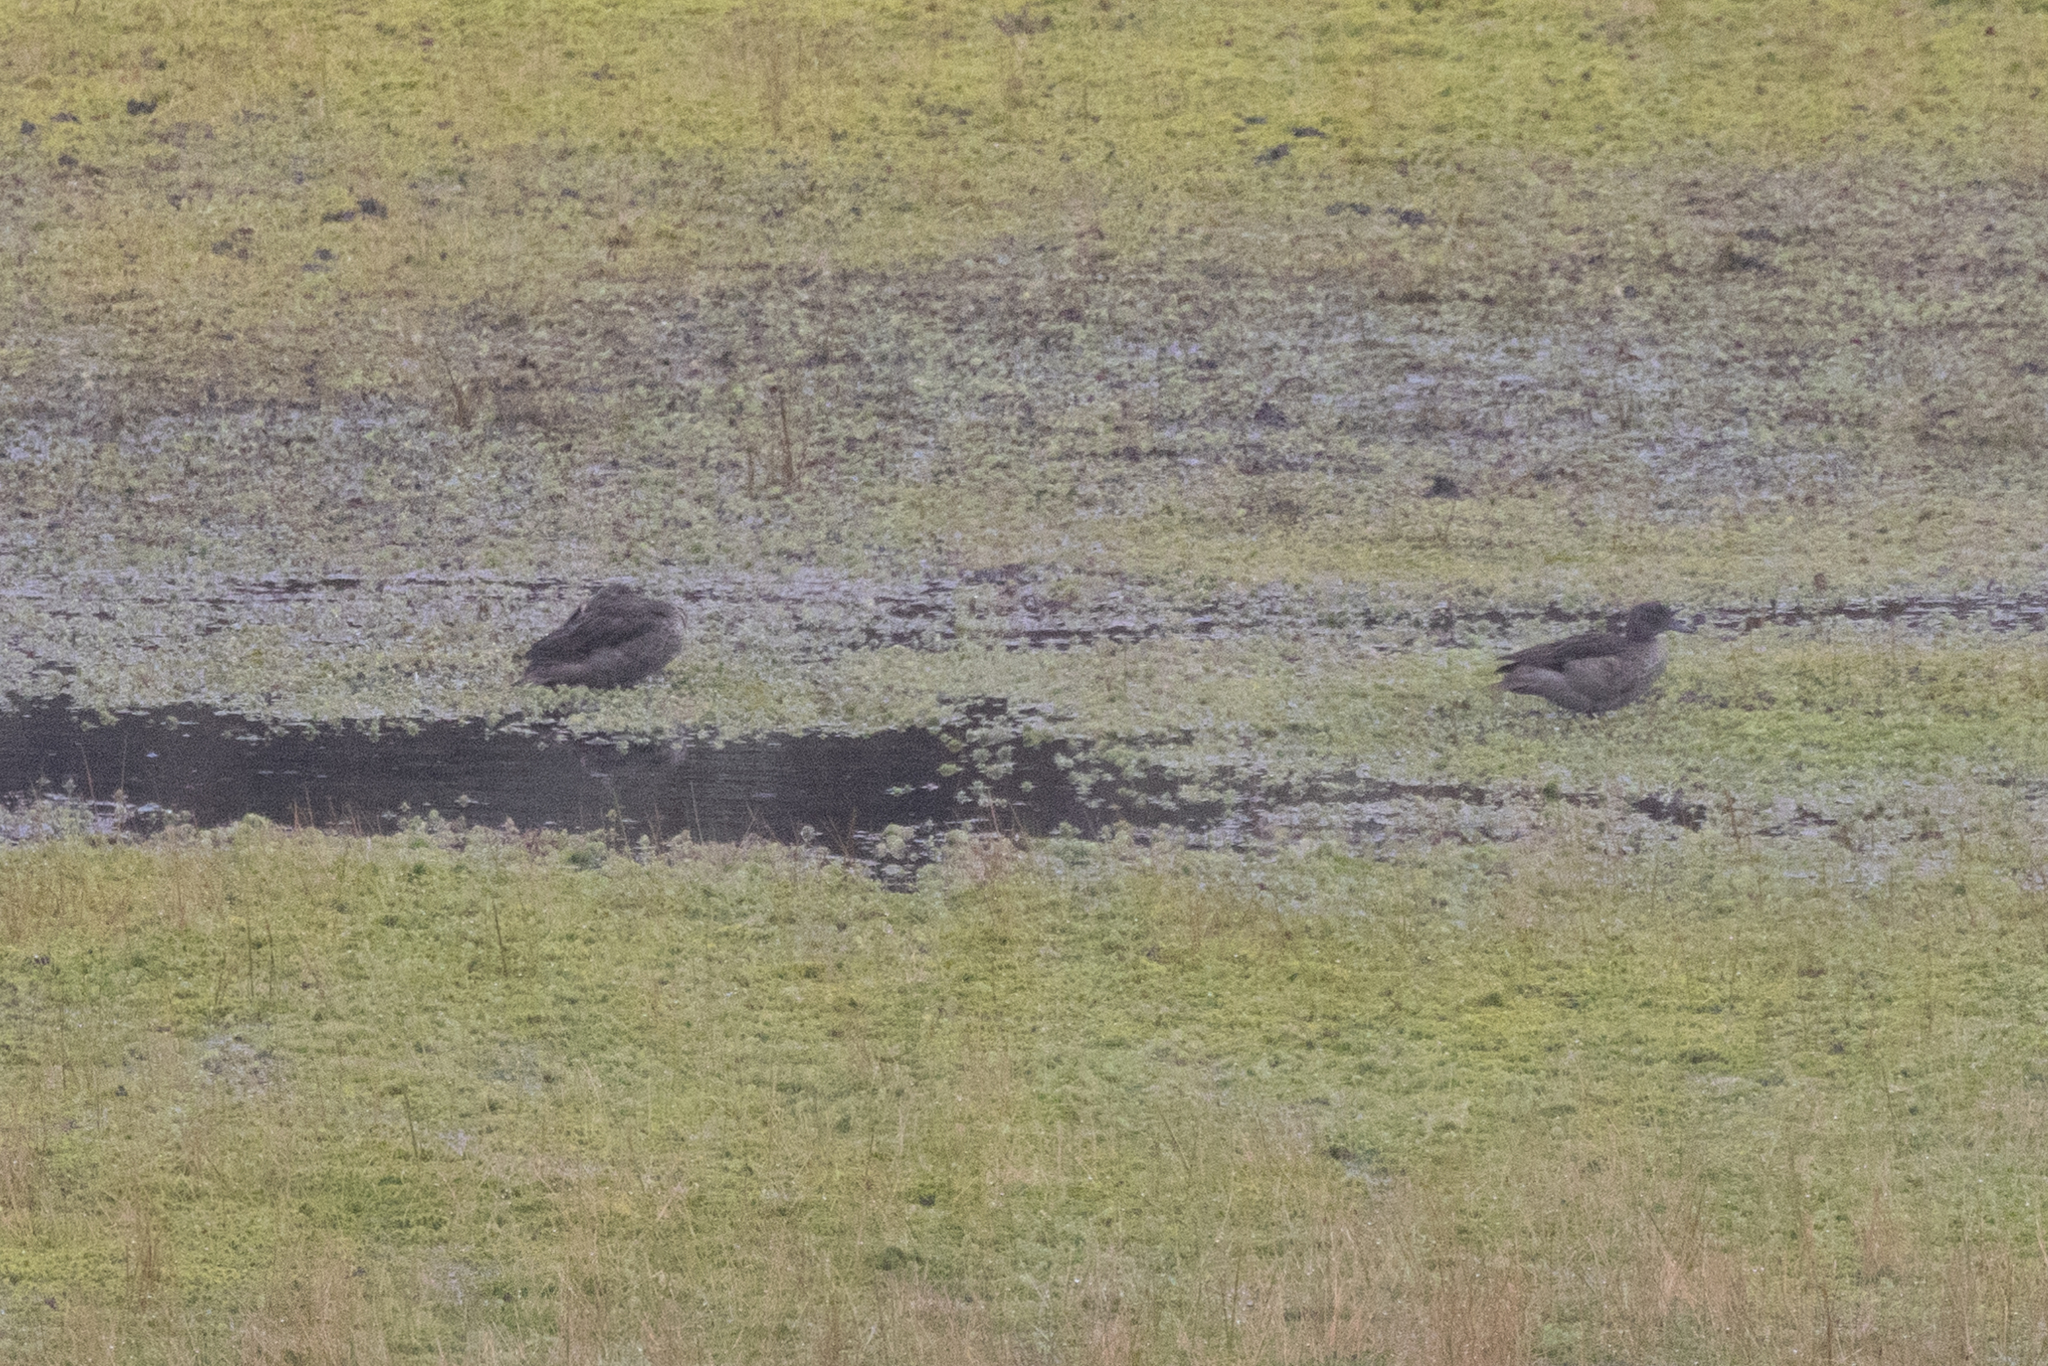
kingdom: Animalia
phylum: Chordata
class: Aves
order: Anseriformes
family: Anatidae
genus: Anas
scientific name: Anas andium
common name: Andean teal
